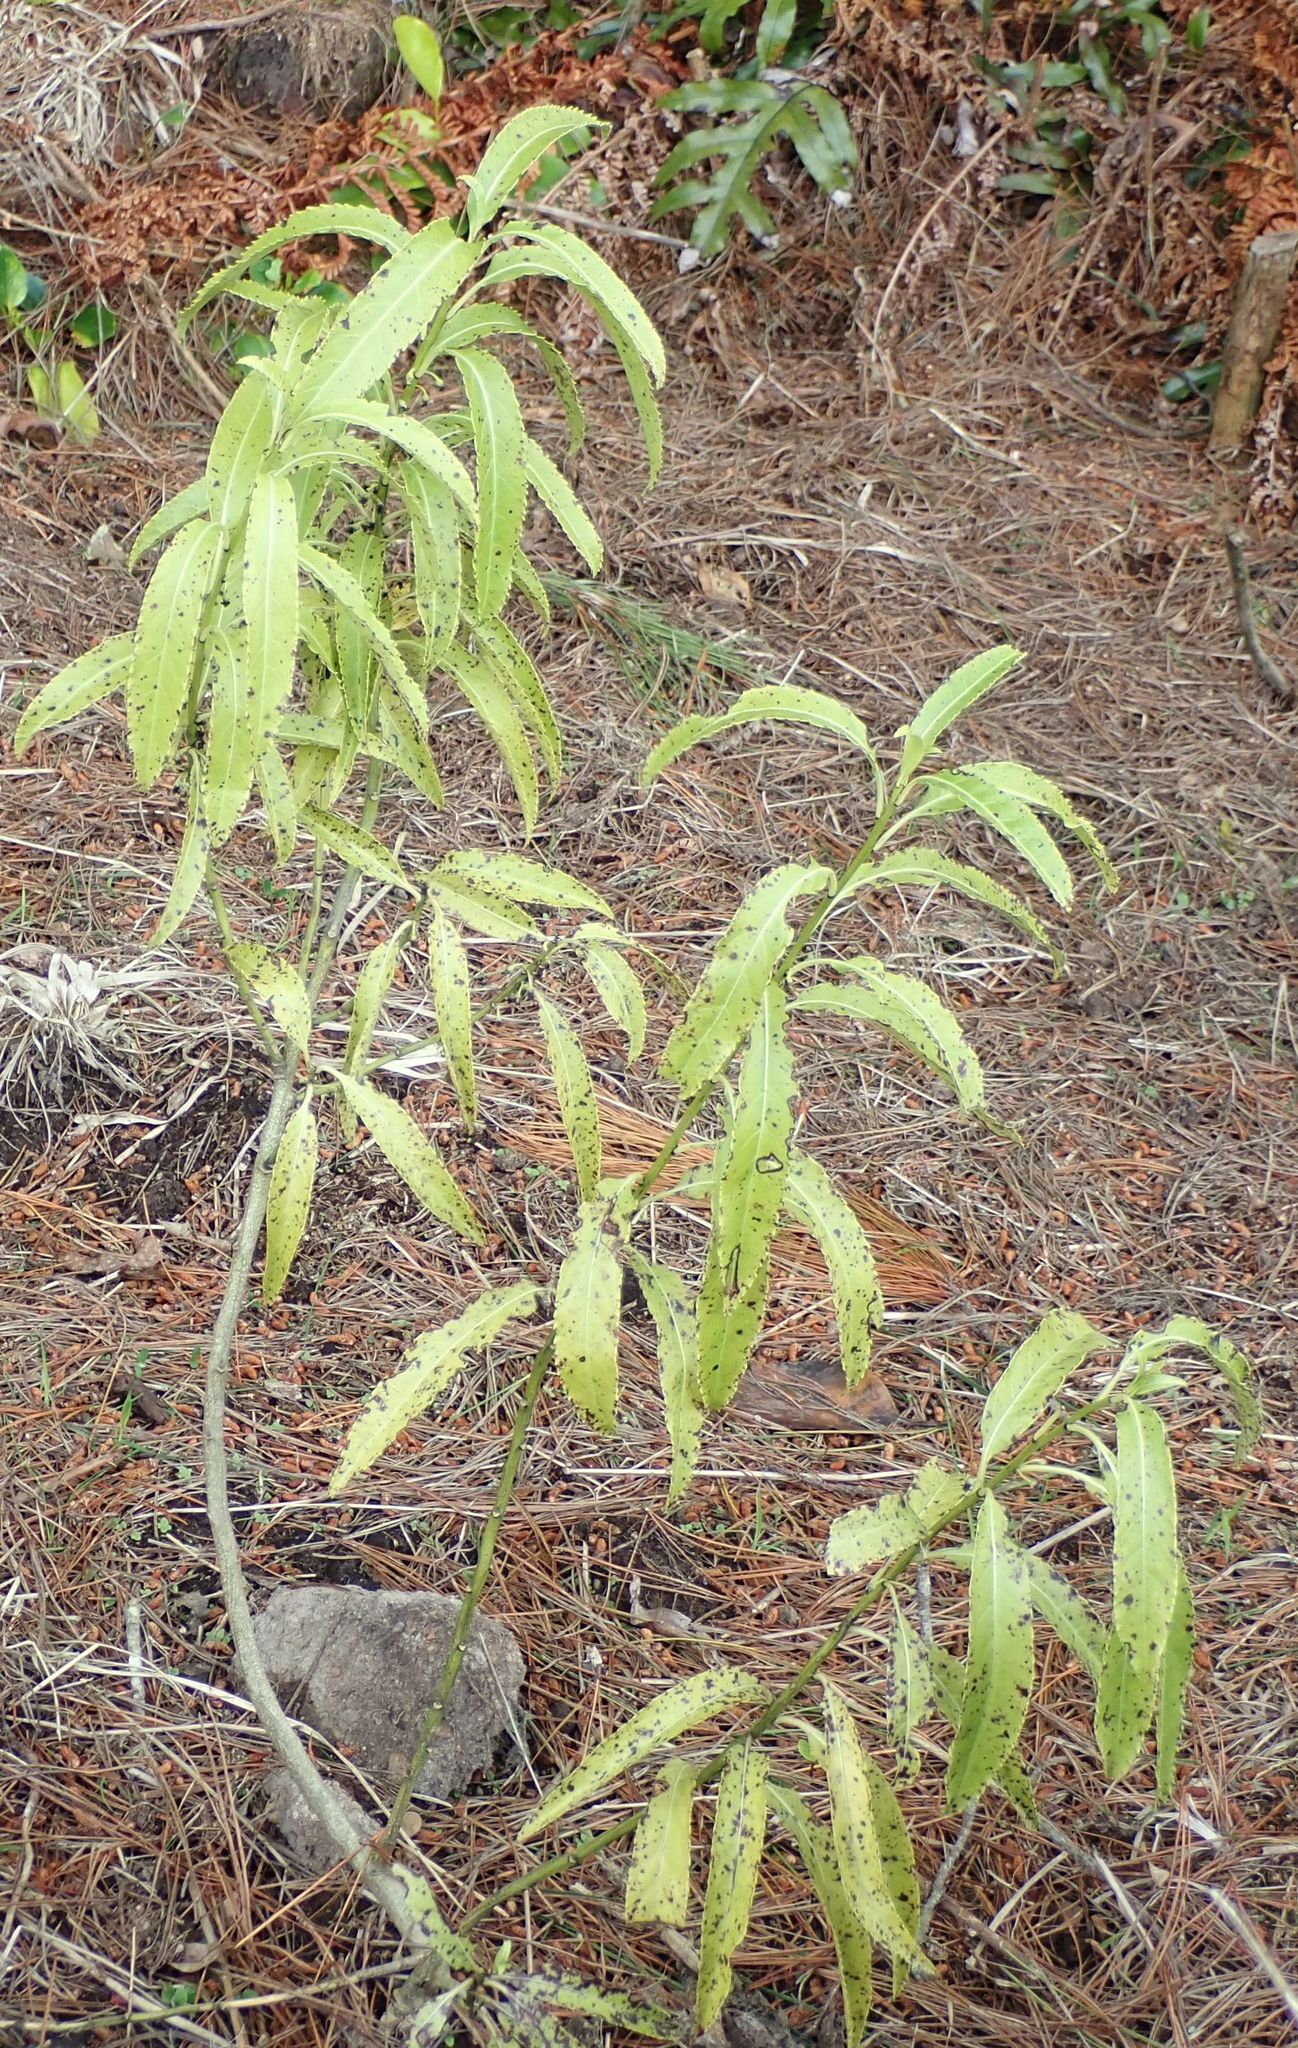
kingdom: Plantae
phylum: Tracheophyta
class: Magnoliopsida
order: Malpighiales
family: Violaceae
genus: Melicytus
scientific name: Melicytus lanceolatus
